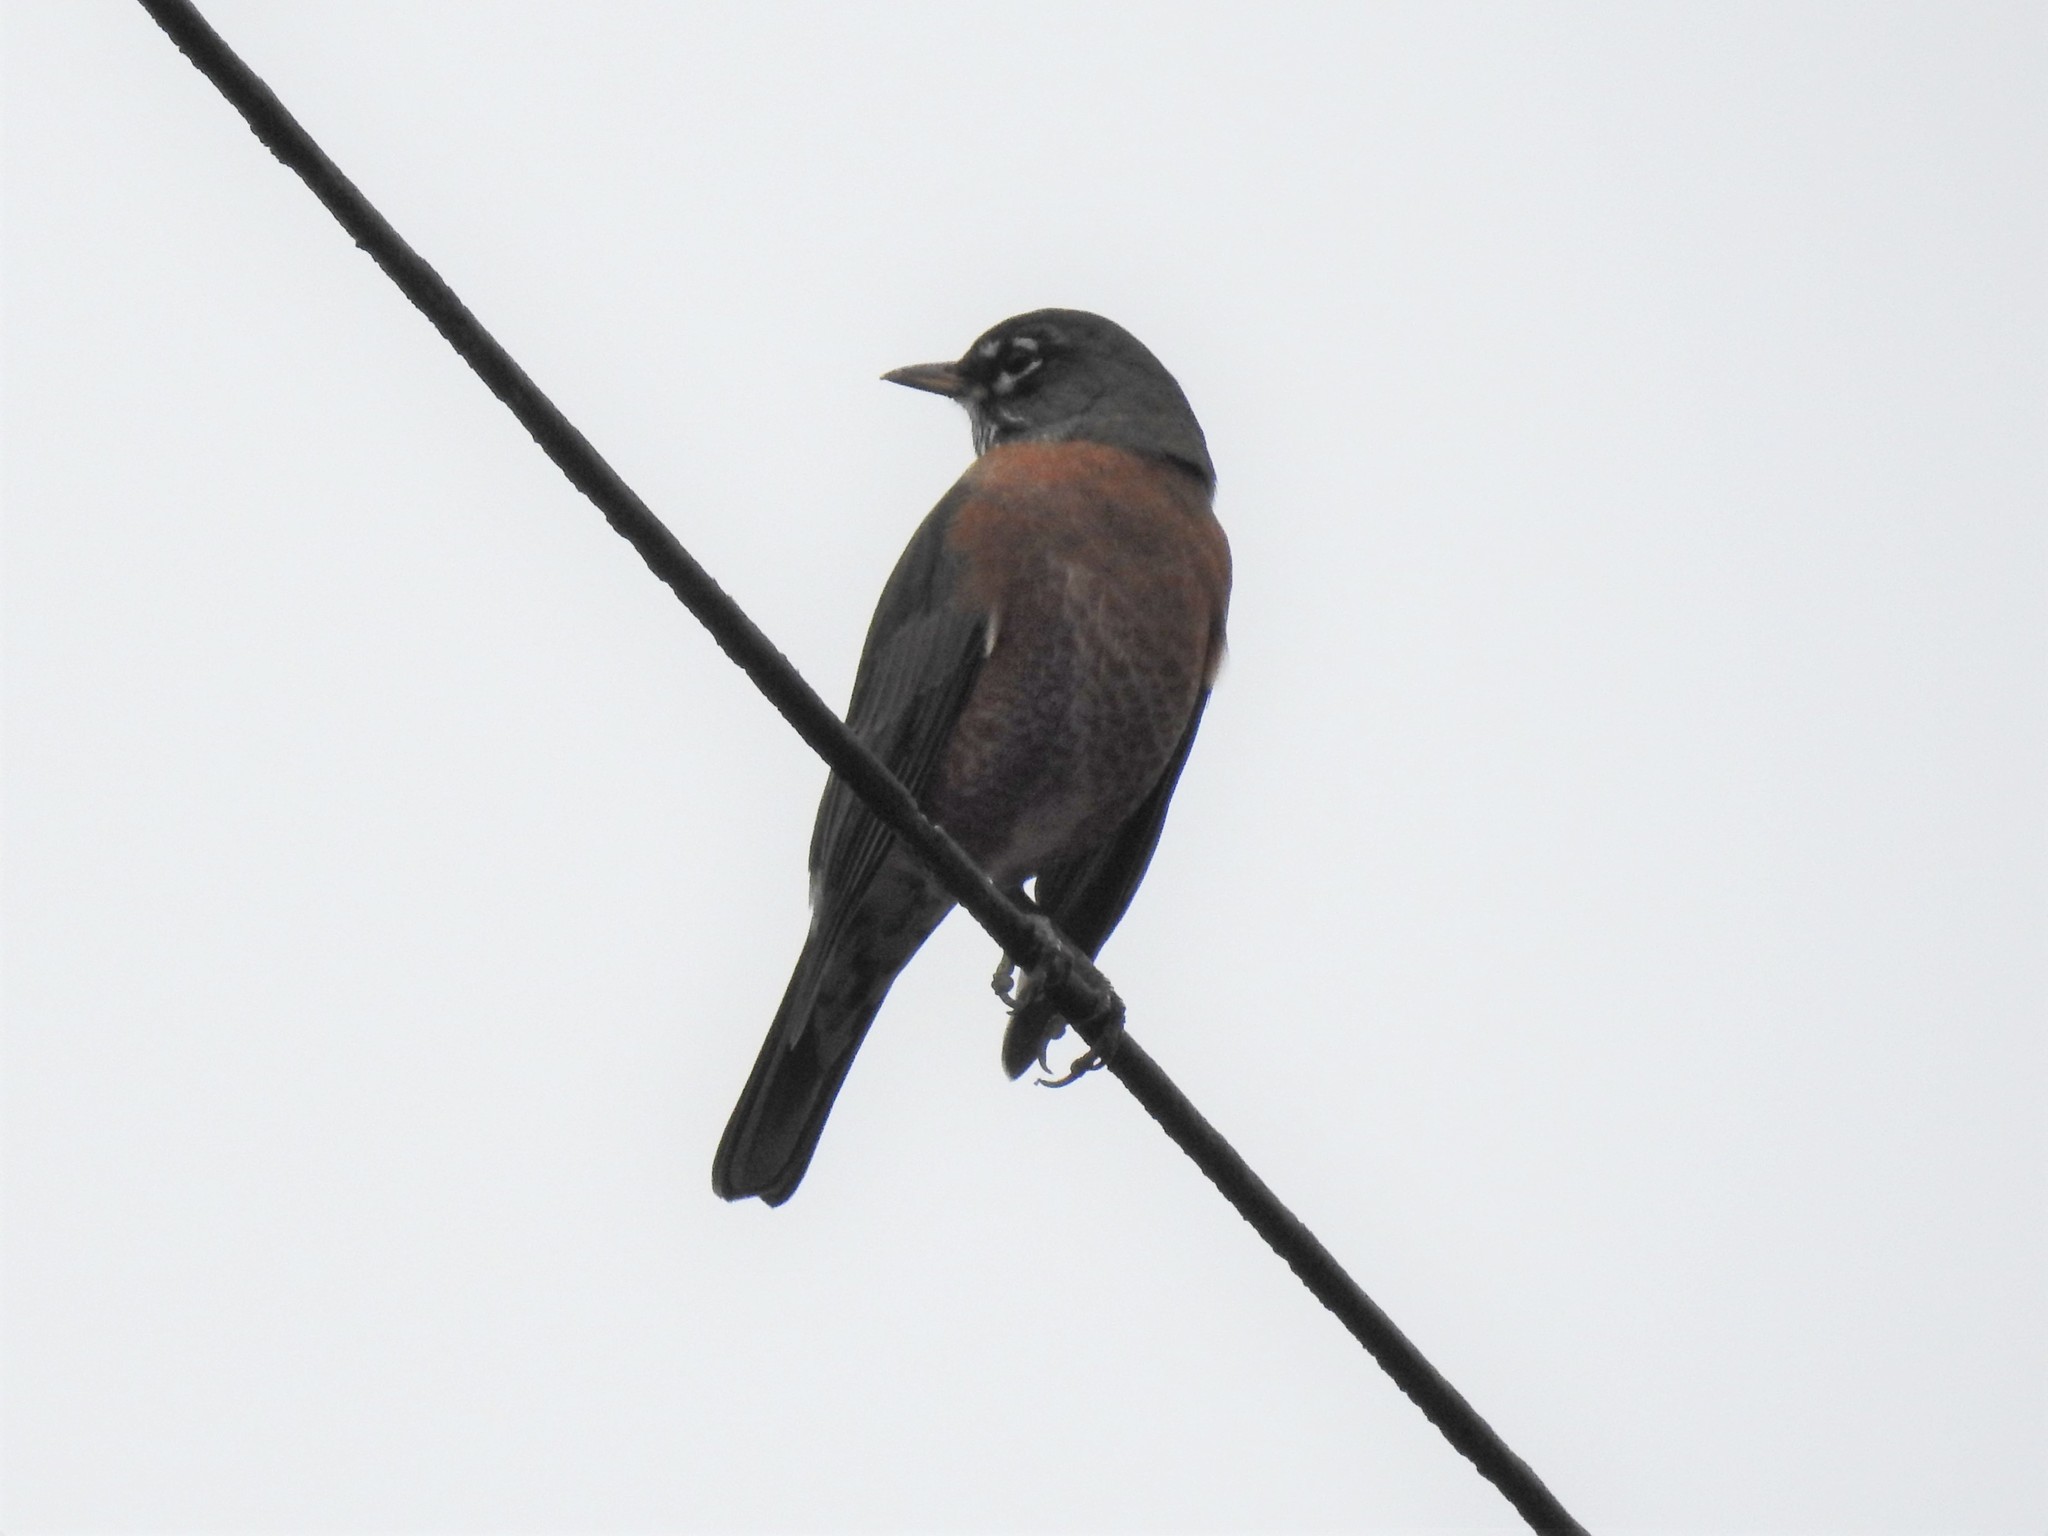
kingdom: Animalia
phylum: Chordata
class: Aves
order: Passeriformes
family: Turdidae
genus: Turdus
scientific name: Turdus migratorius
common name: American robin
